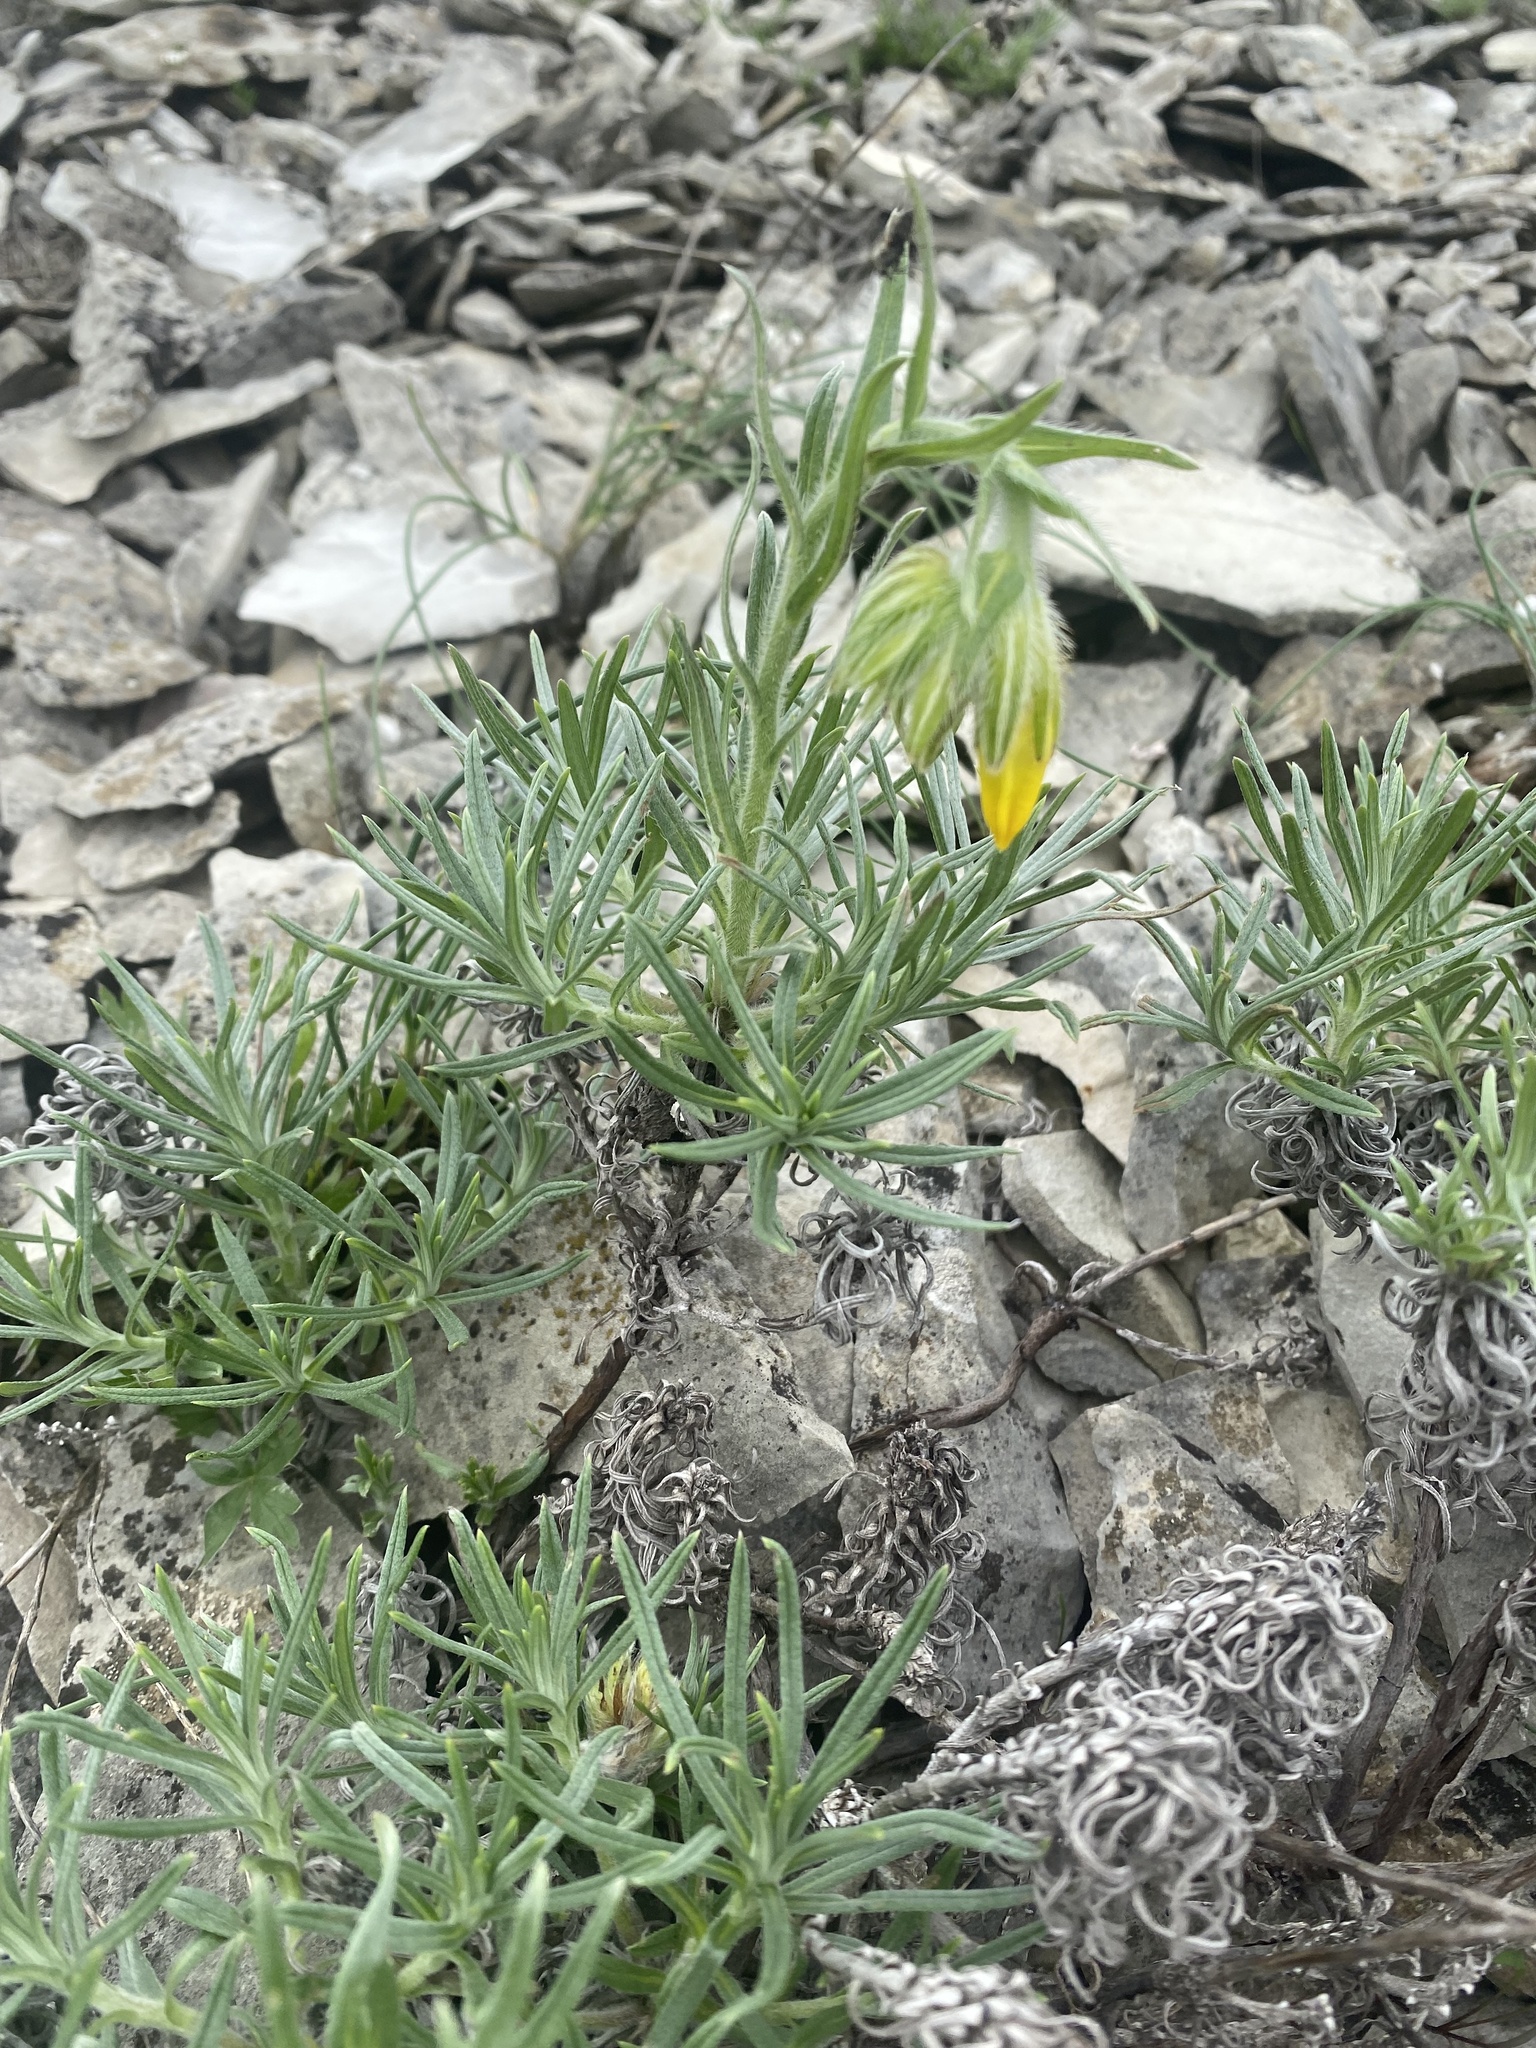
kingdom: Plantae
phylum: Tracheophyta
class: Magnoliopsida
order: Boraginales
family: Boraginaceae
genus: Onosma
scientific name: Onosma polyphylla
